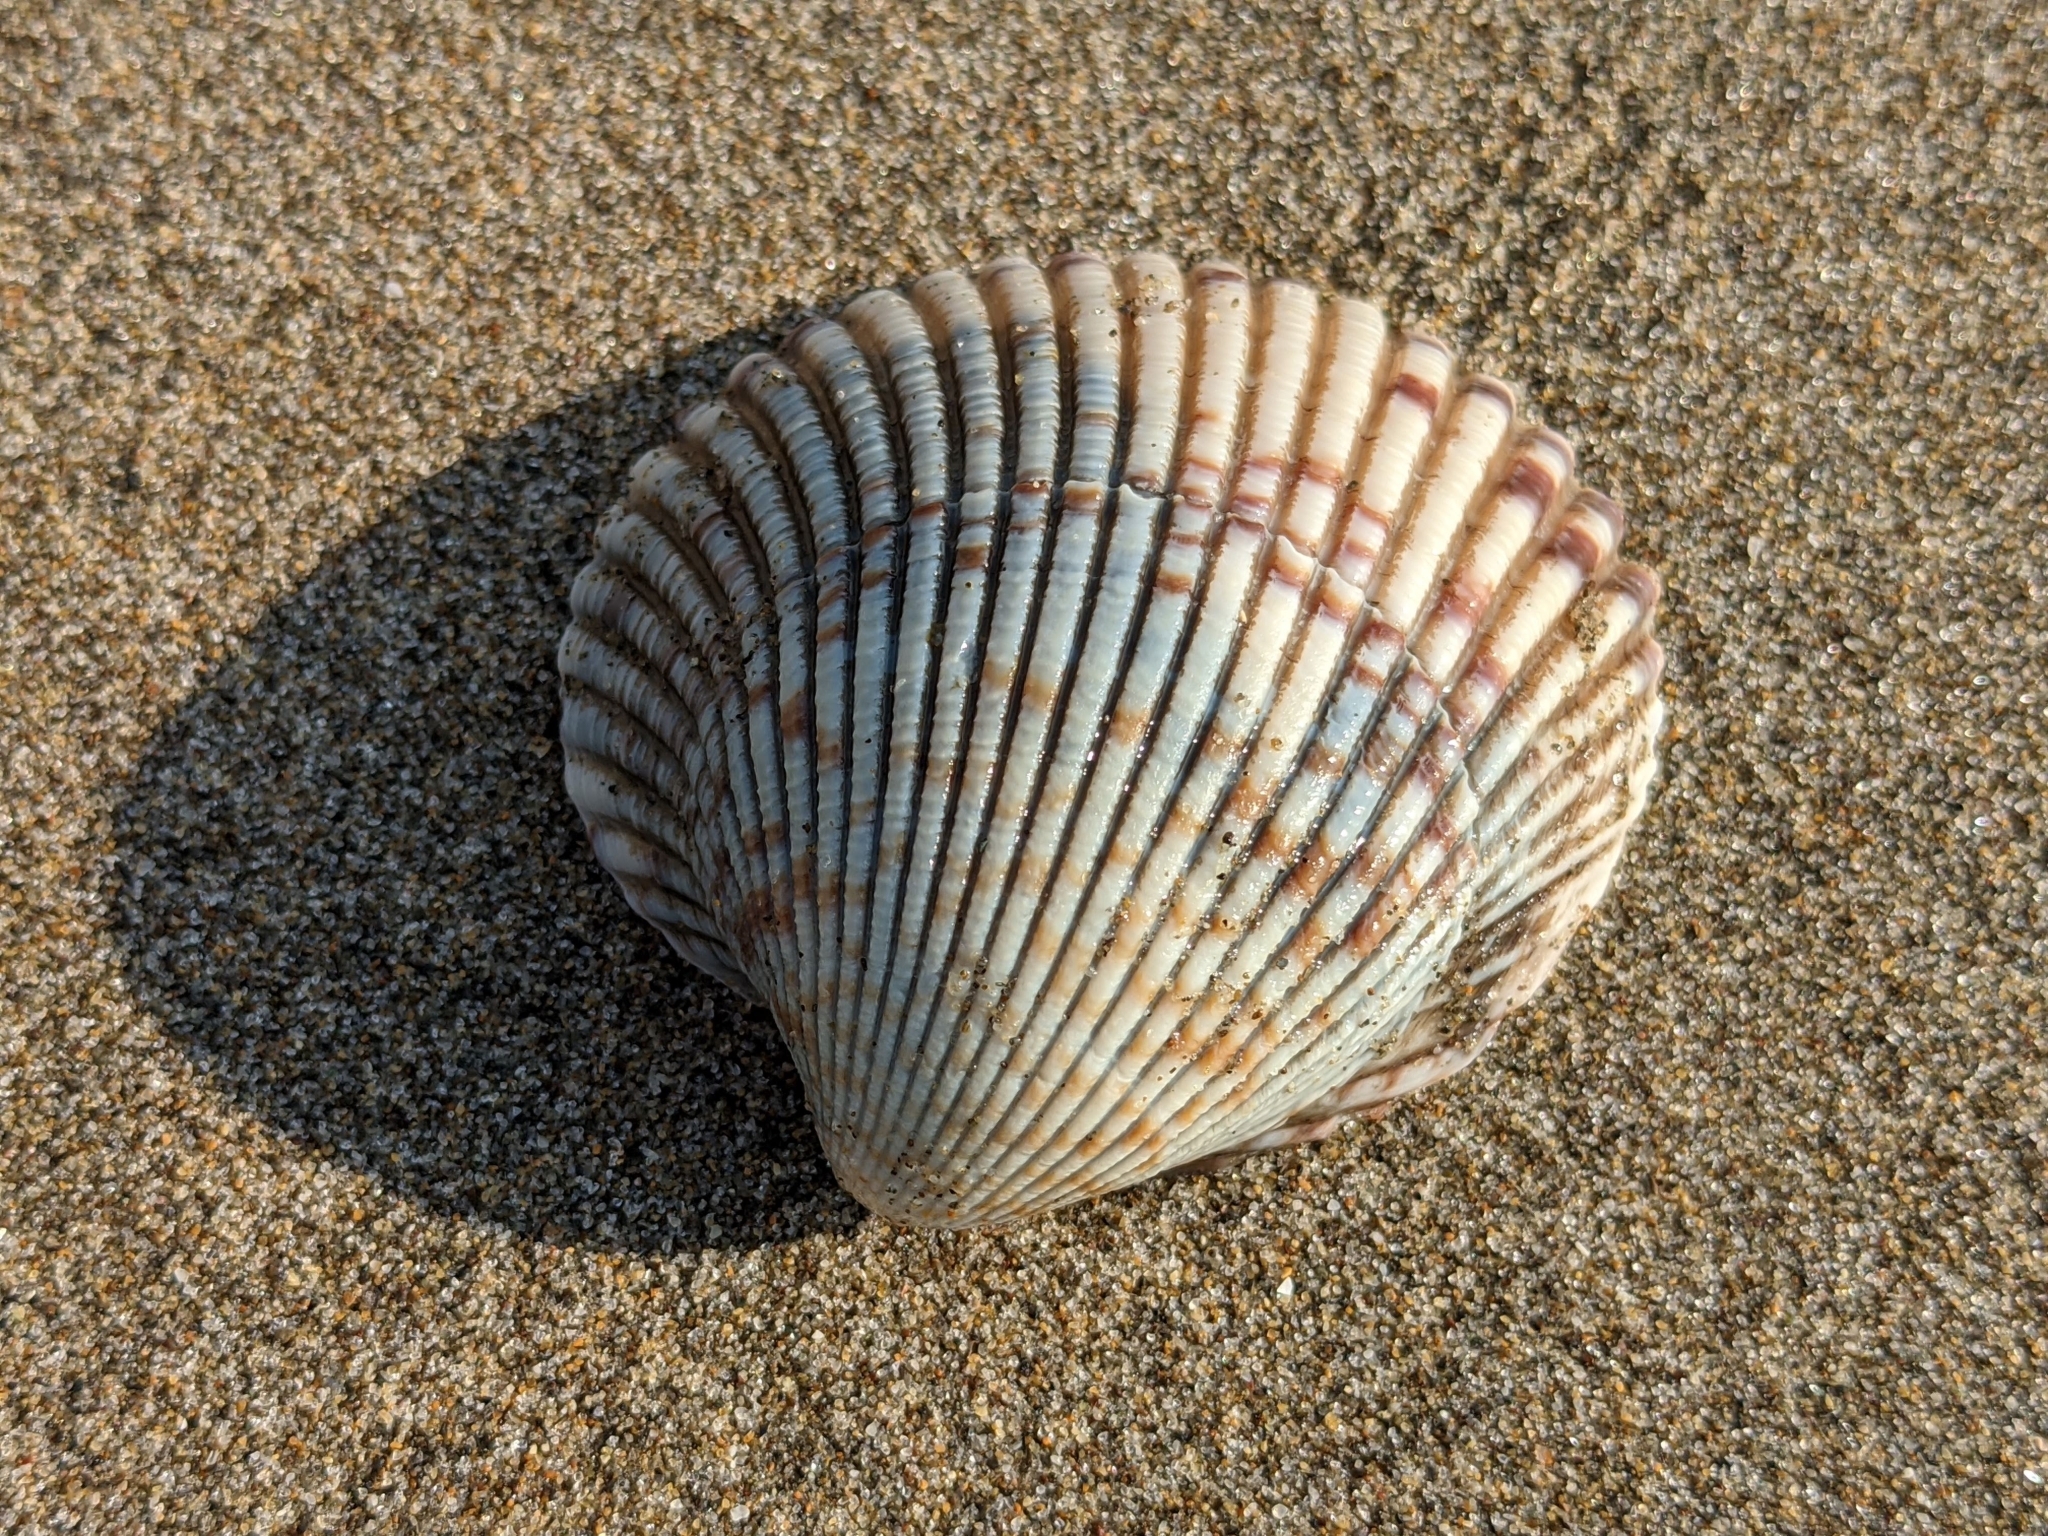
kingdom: Animalia
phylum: Mollusca
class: Bivalvia
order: Cardiida
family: Cardiidae
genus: Clinocardium
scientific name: Clinocardium nuttallii
